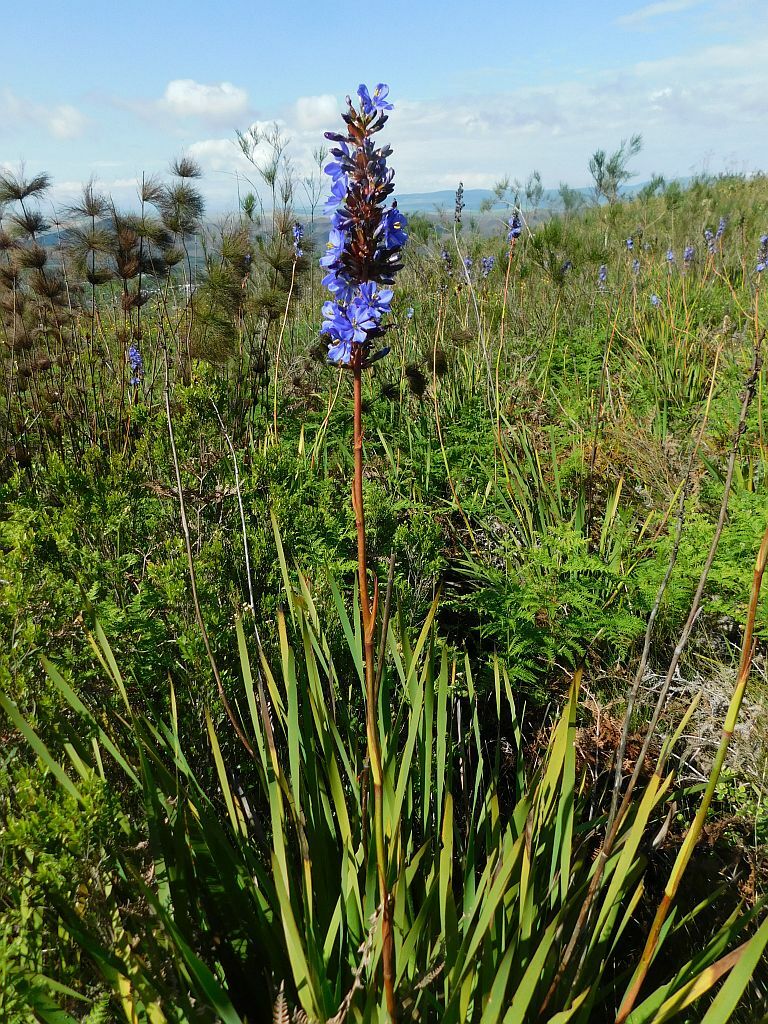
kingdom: Plantae
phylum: Tracheophyta
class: Liliopsida
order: Asparagales
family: Iridaceae
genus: Aristea
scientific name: Aristea capitata
